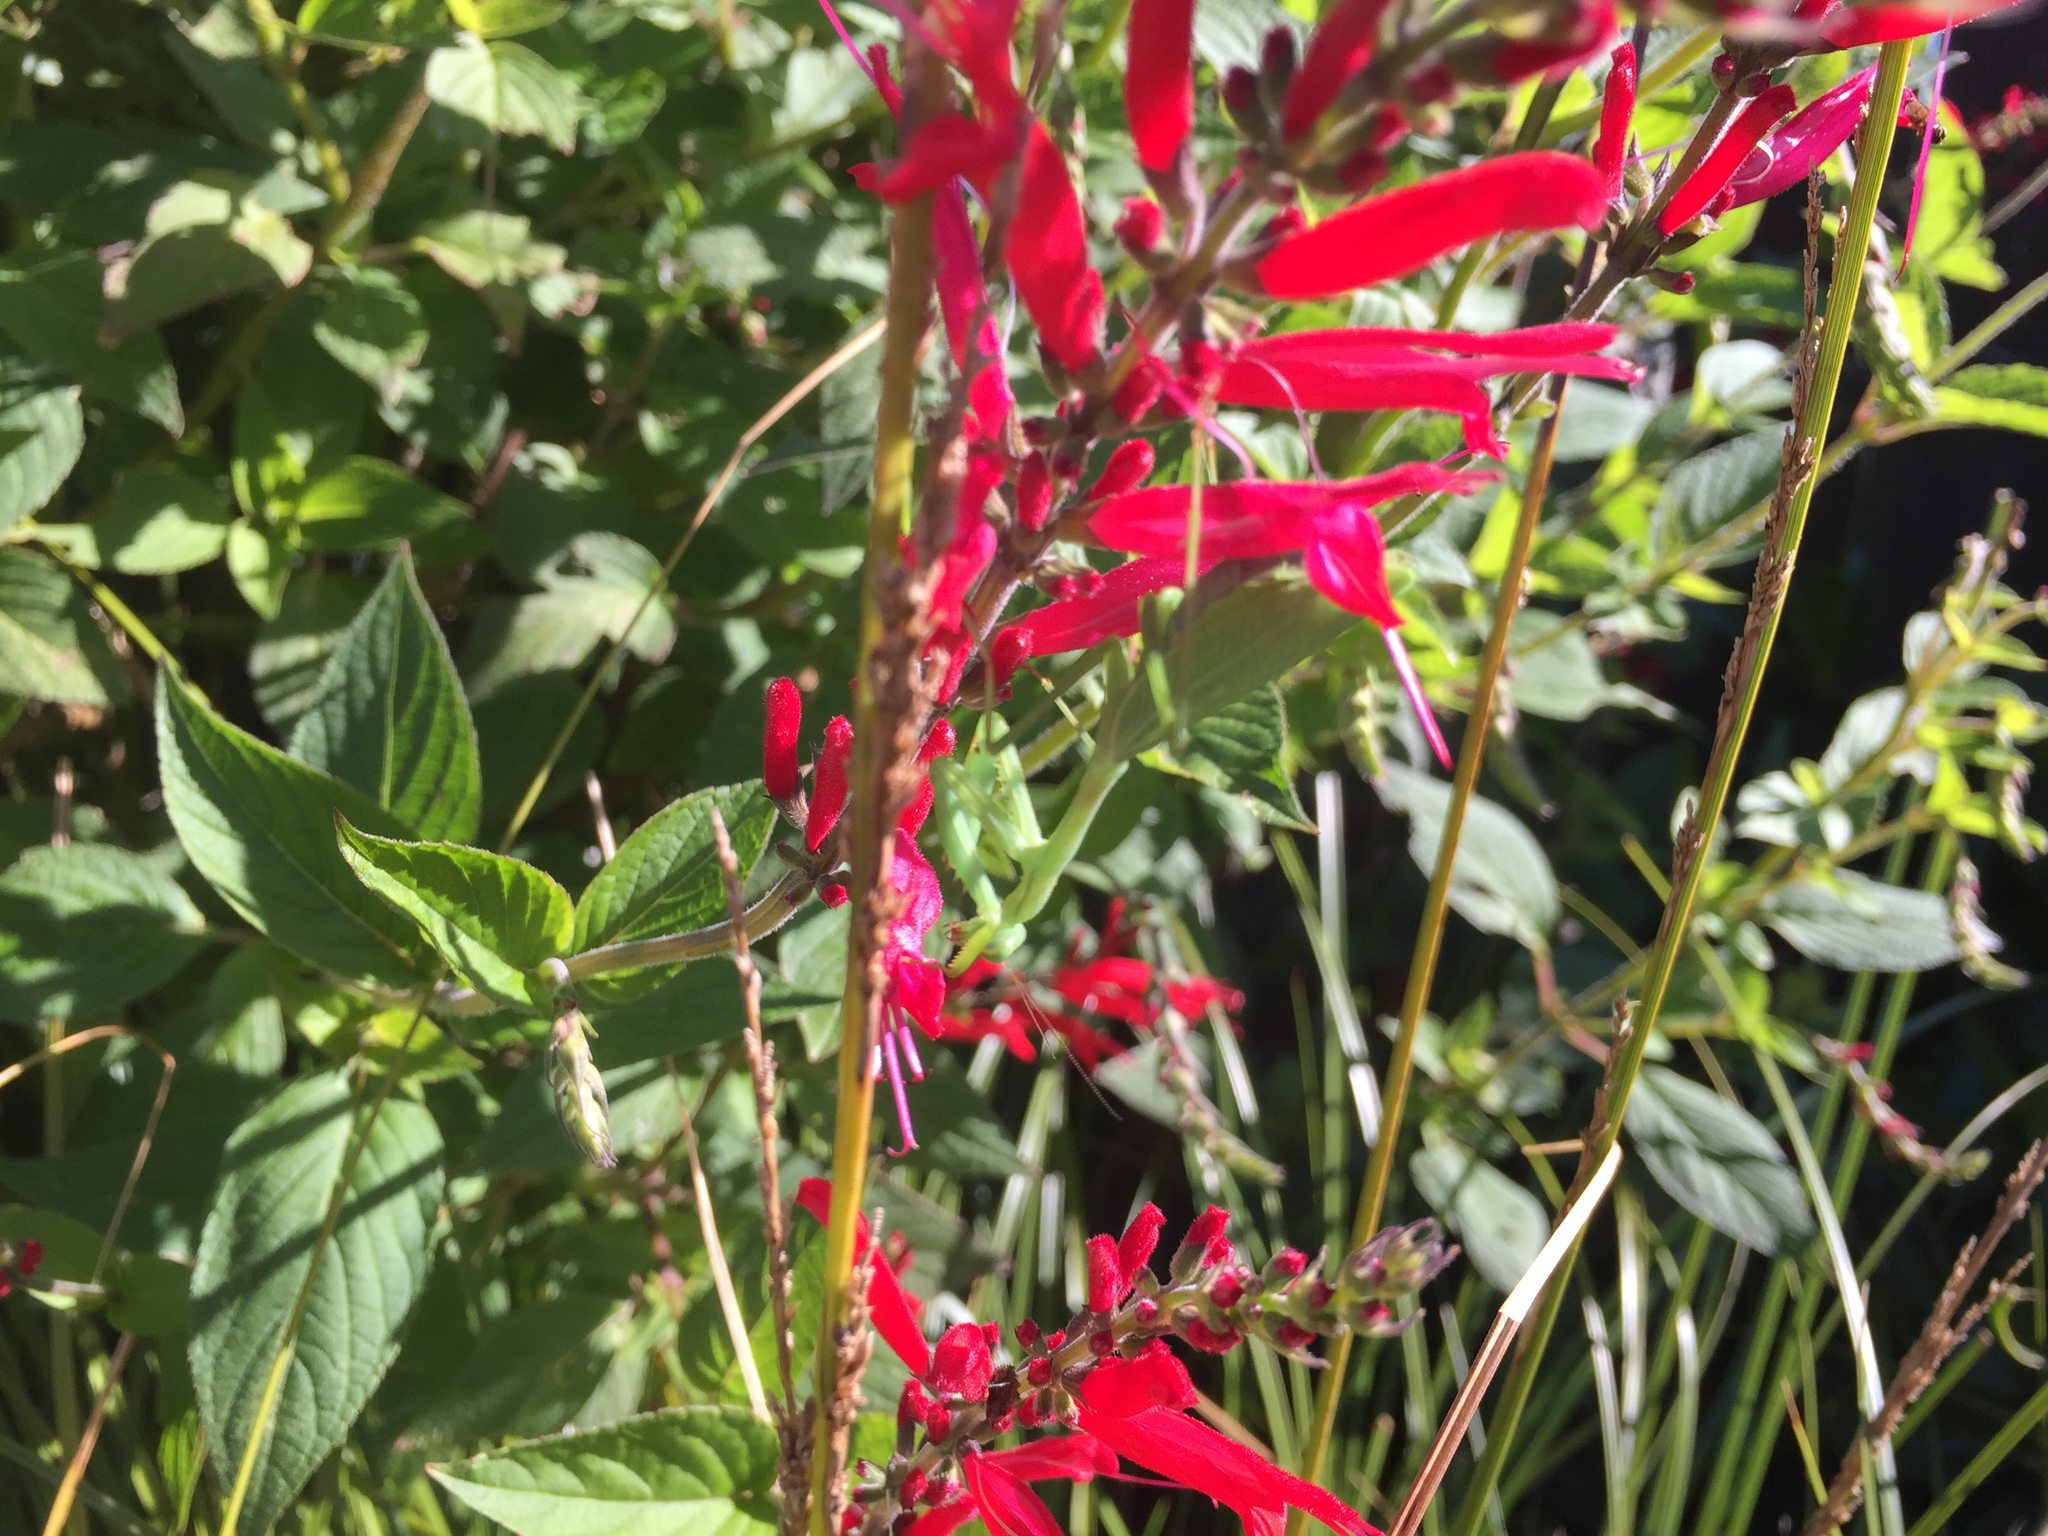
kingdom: Animalia
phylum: Arthropoda
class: Insecta
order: Mantodea
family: Miomantidae
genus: Miomantis
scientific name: Miomantis caffra
